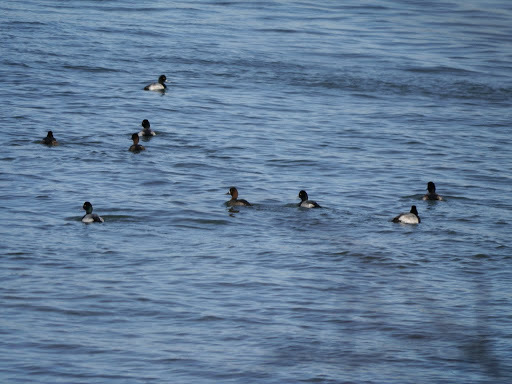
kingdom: Animalia
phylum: Chordata
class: Aves
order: Anseriformes
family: Anatidae
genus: Aythya
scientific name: Aythya affinis
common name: Lesser scaup
